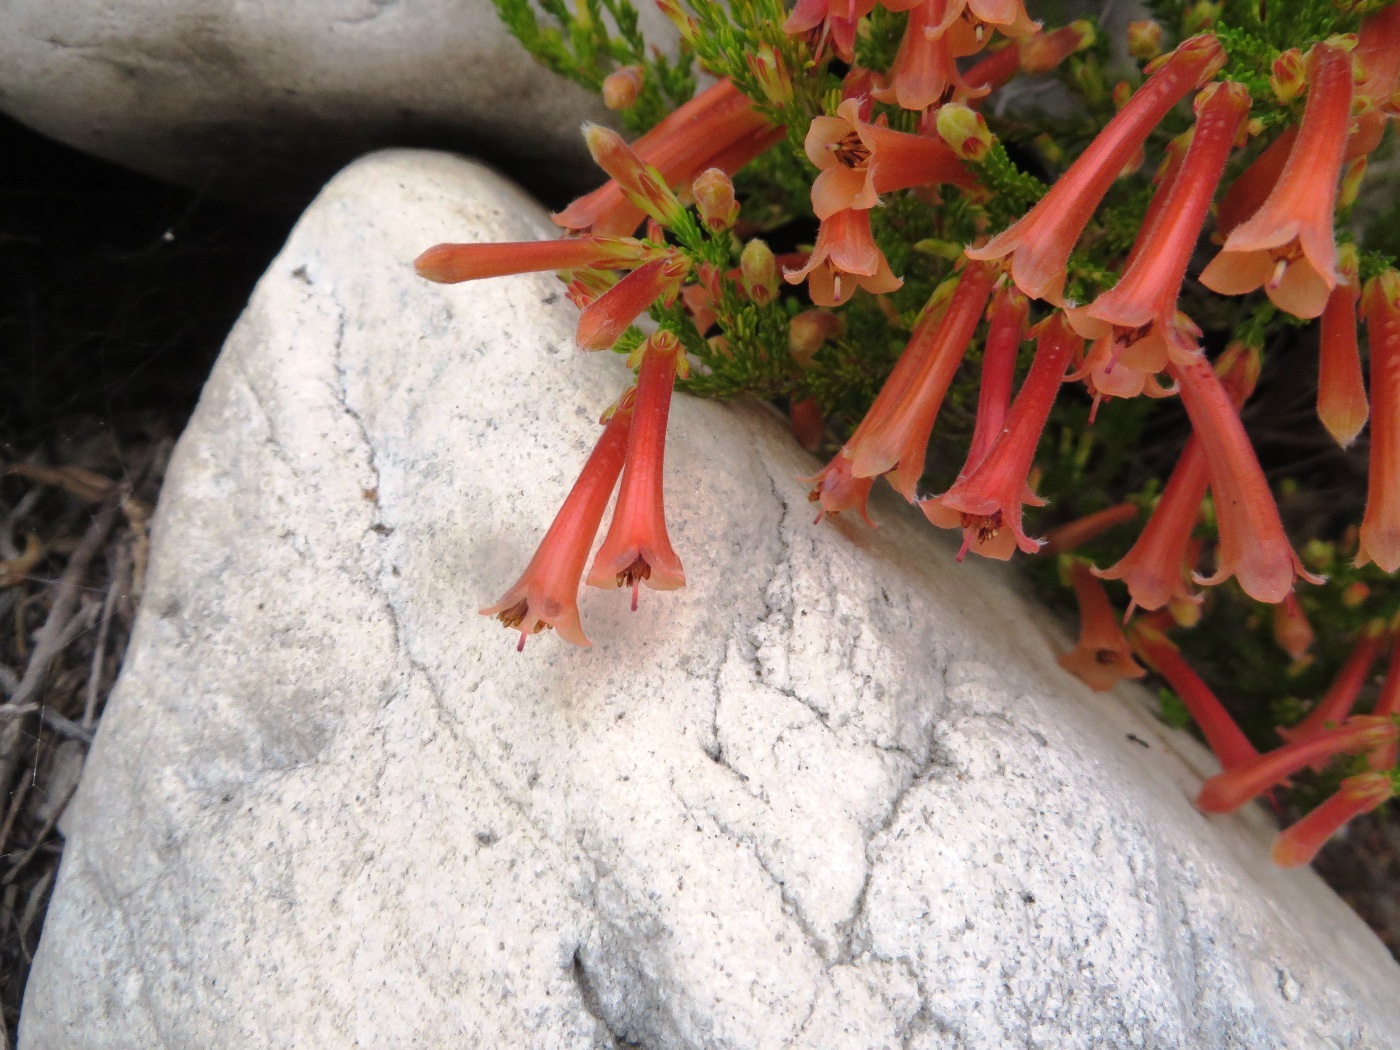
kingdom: Plantae
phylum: Tracheophyta
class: Magnoliopsida
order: Ericales
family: Ericaceae
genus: Erica
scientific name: Erica curviflora
